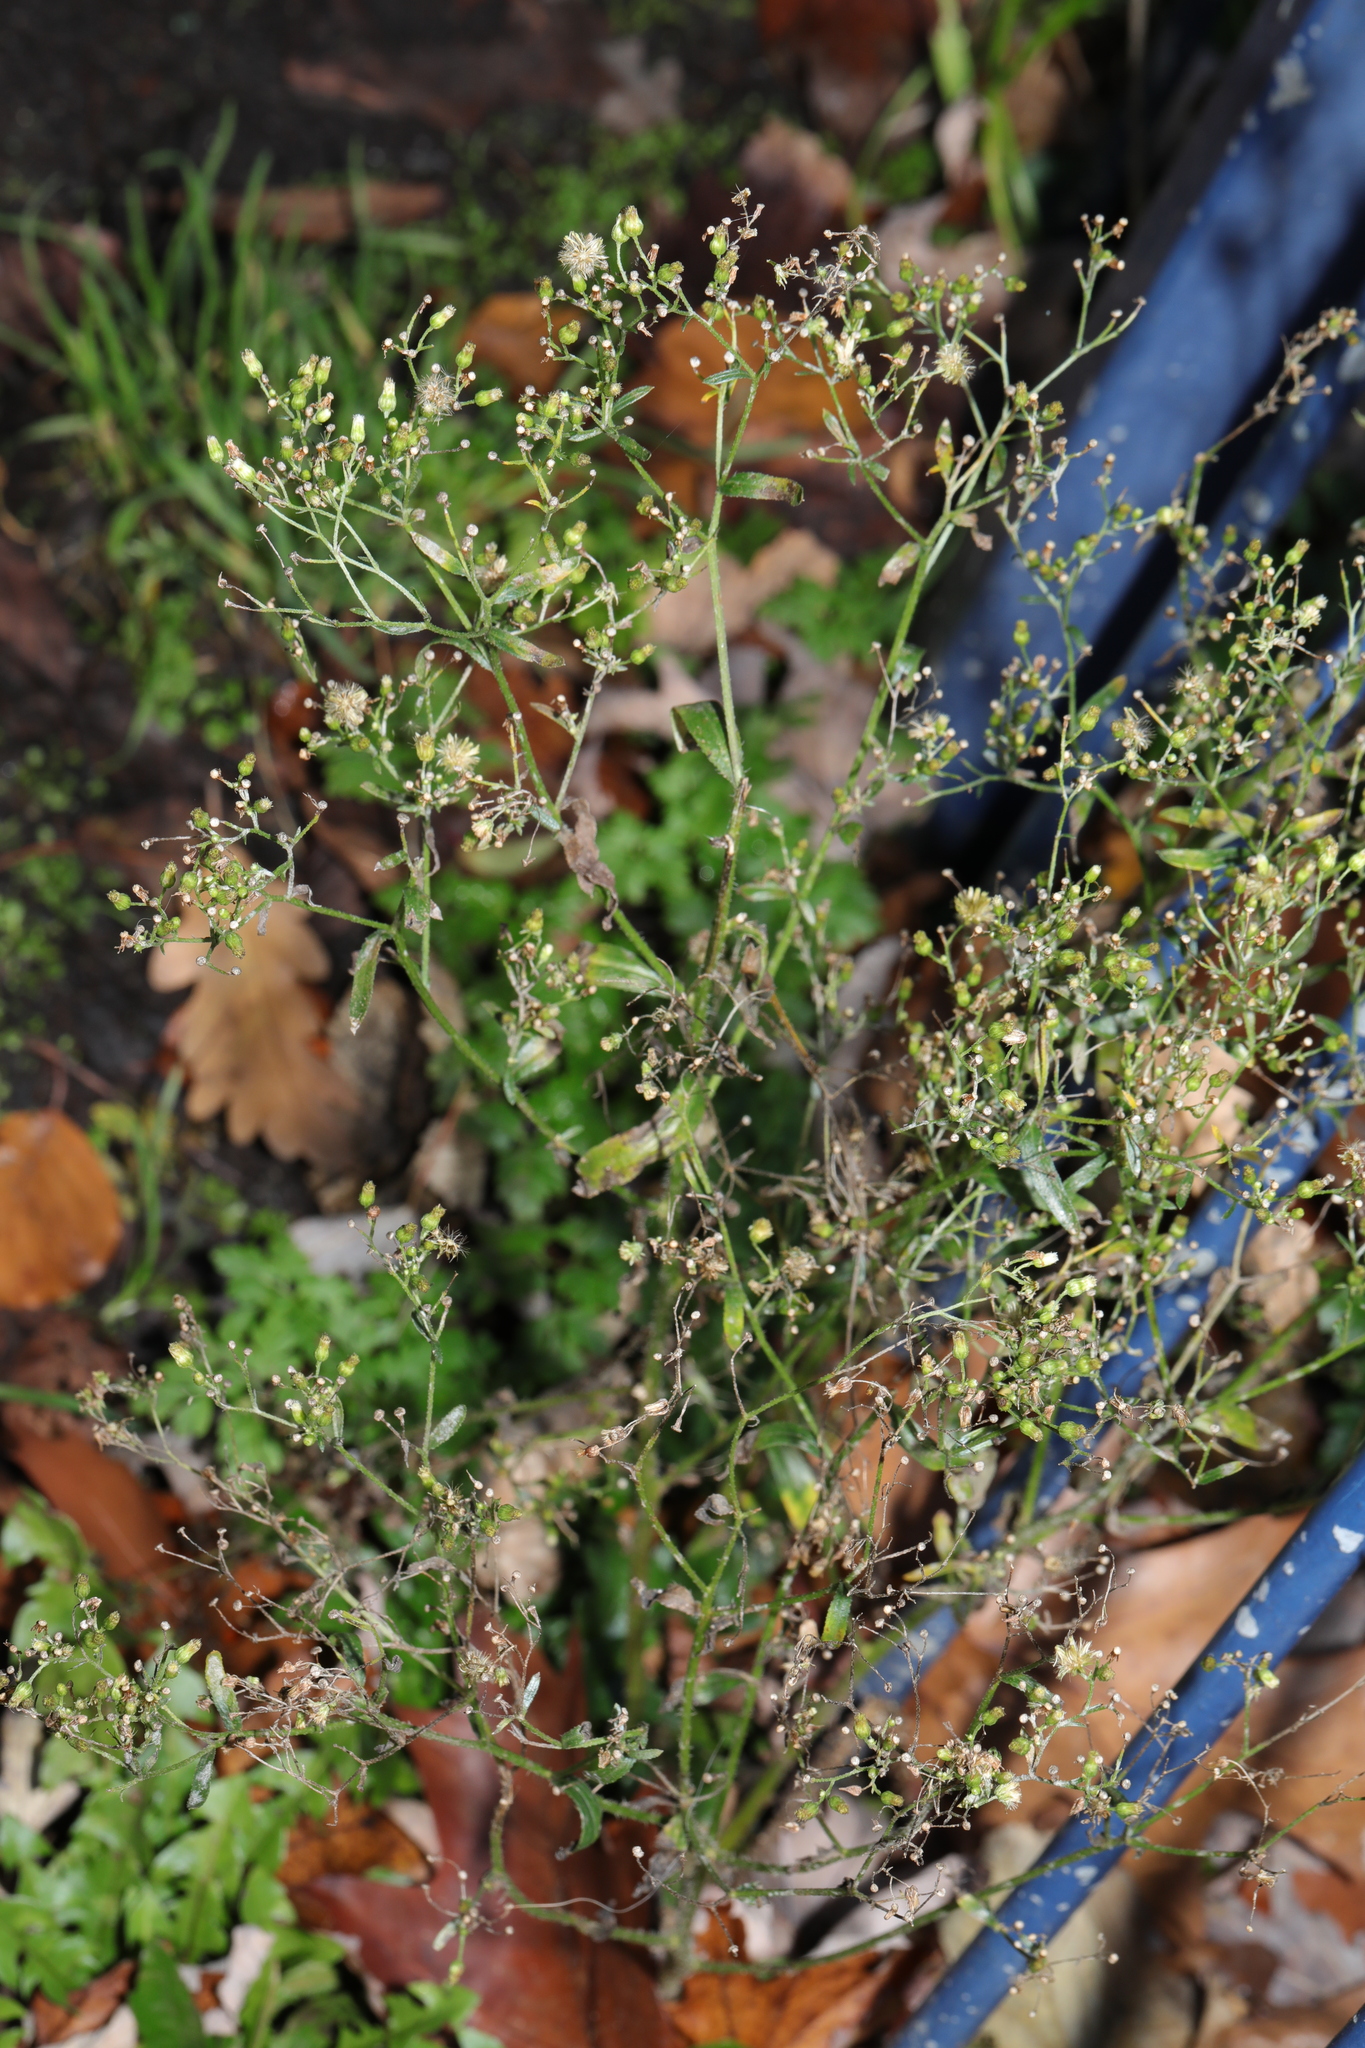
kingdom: Plantae
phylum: Tracheophyta
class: Magnoliopsida
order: Asterales
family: Asteraceae
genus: Erigeron
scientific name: Erigeron canadensis
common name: Canadian fleabane
